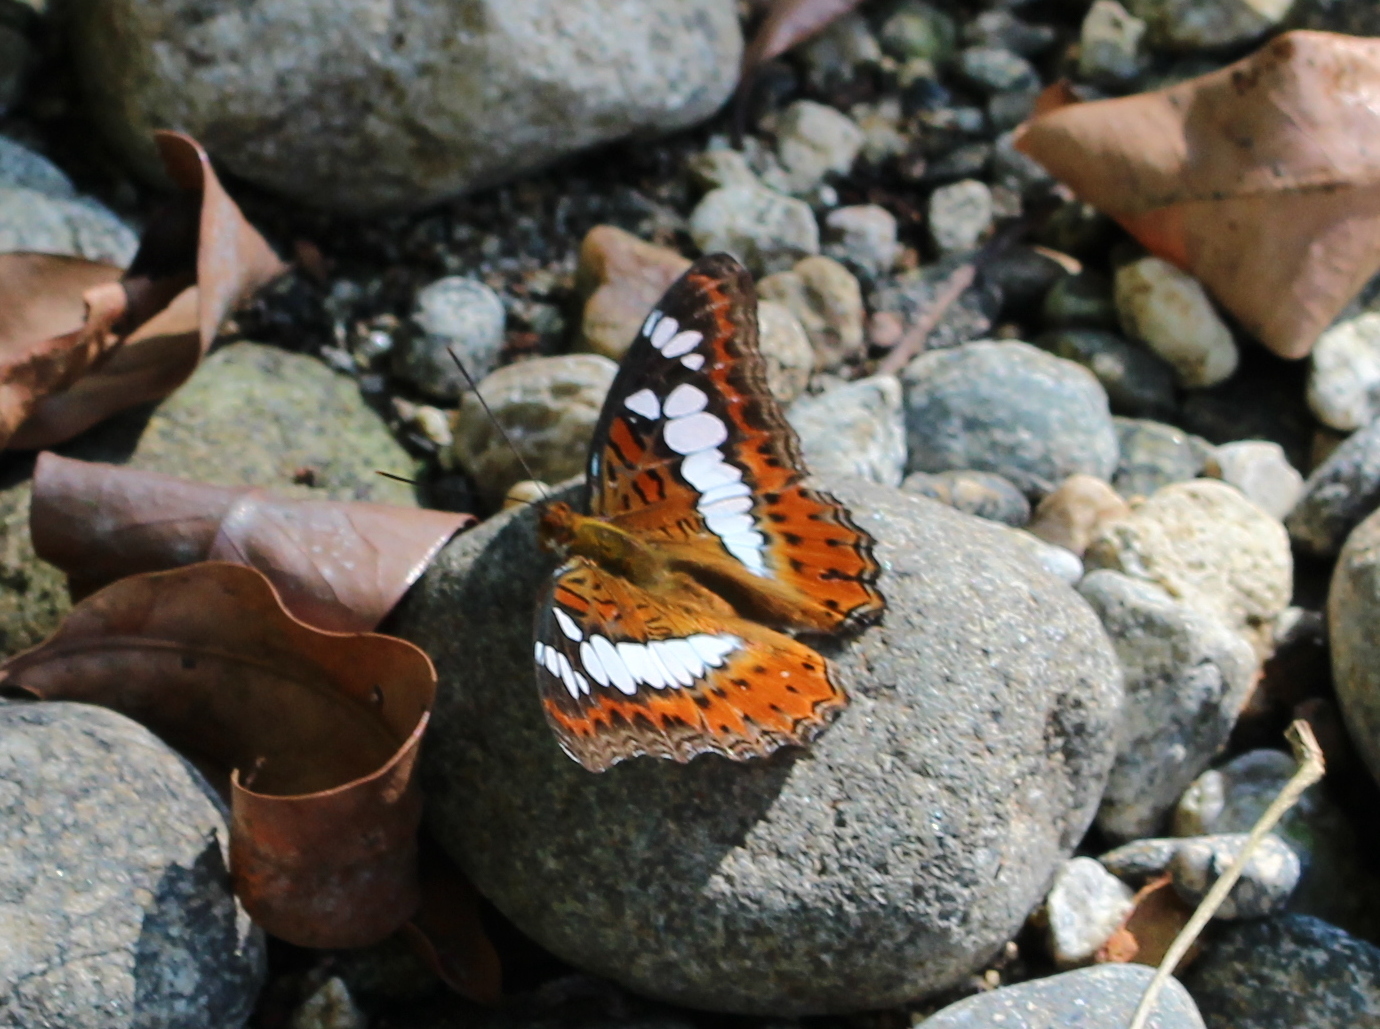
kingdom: Animalia
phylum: Arthropoda
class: Insecta
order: Lepidoptera
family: Nymphalidae
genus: Limenitis
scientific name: Limenitis Moduza procris
